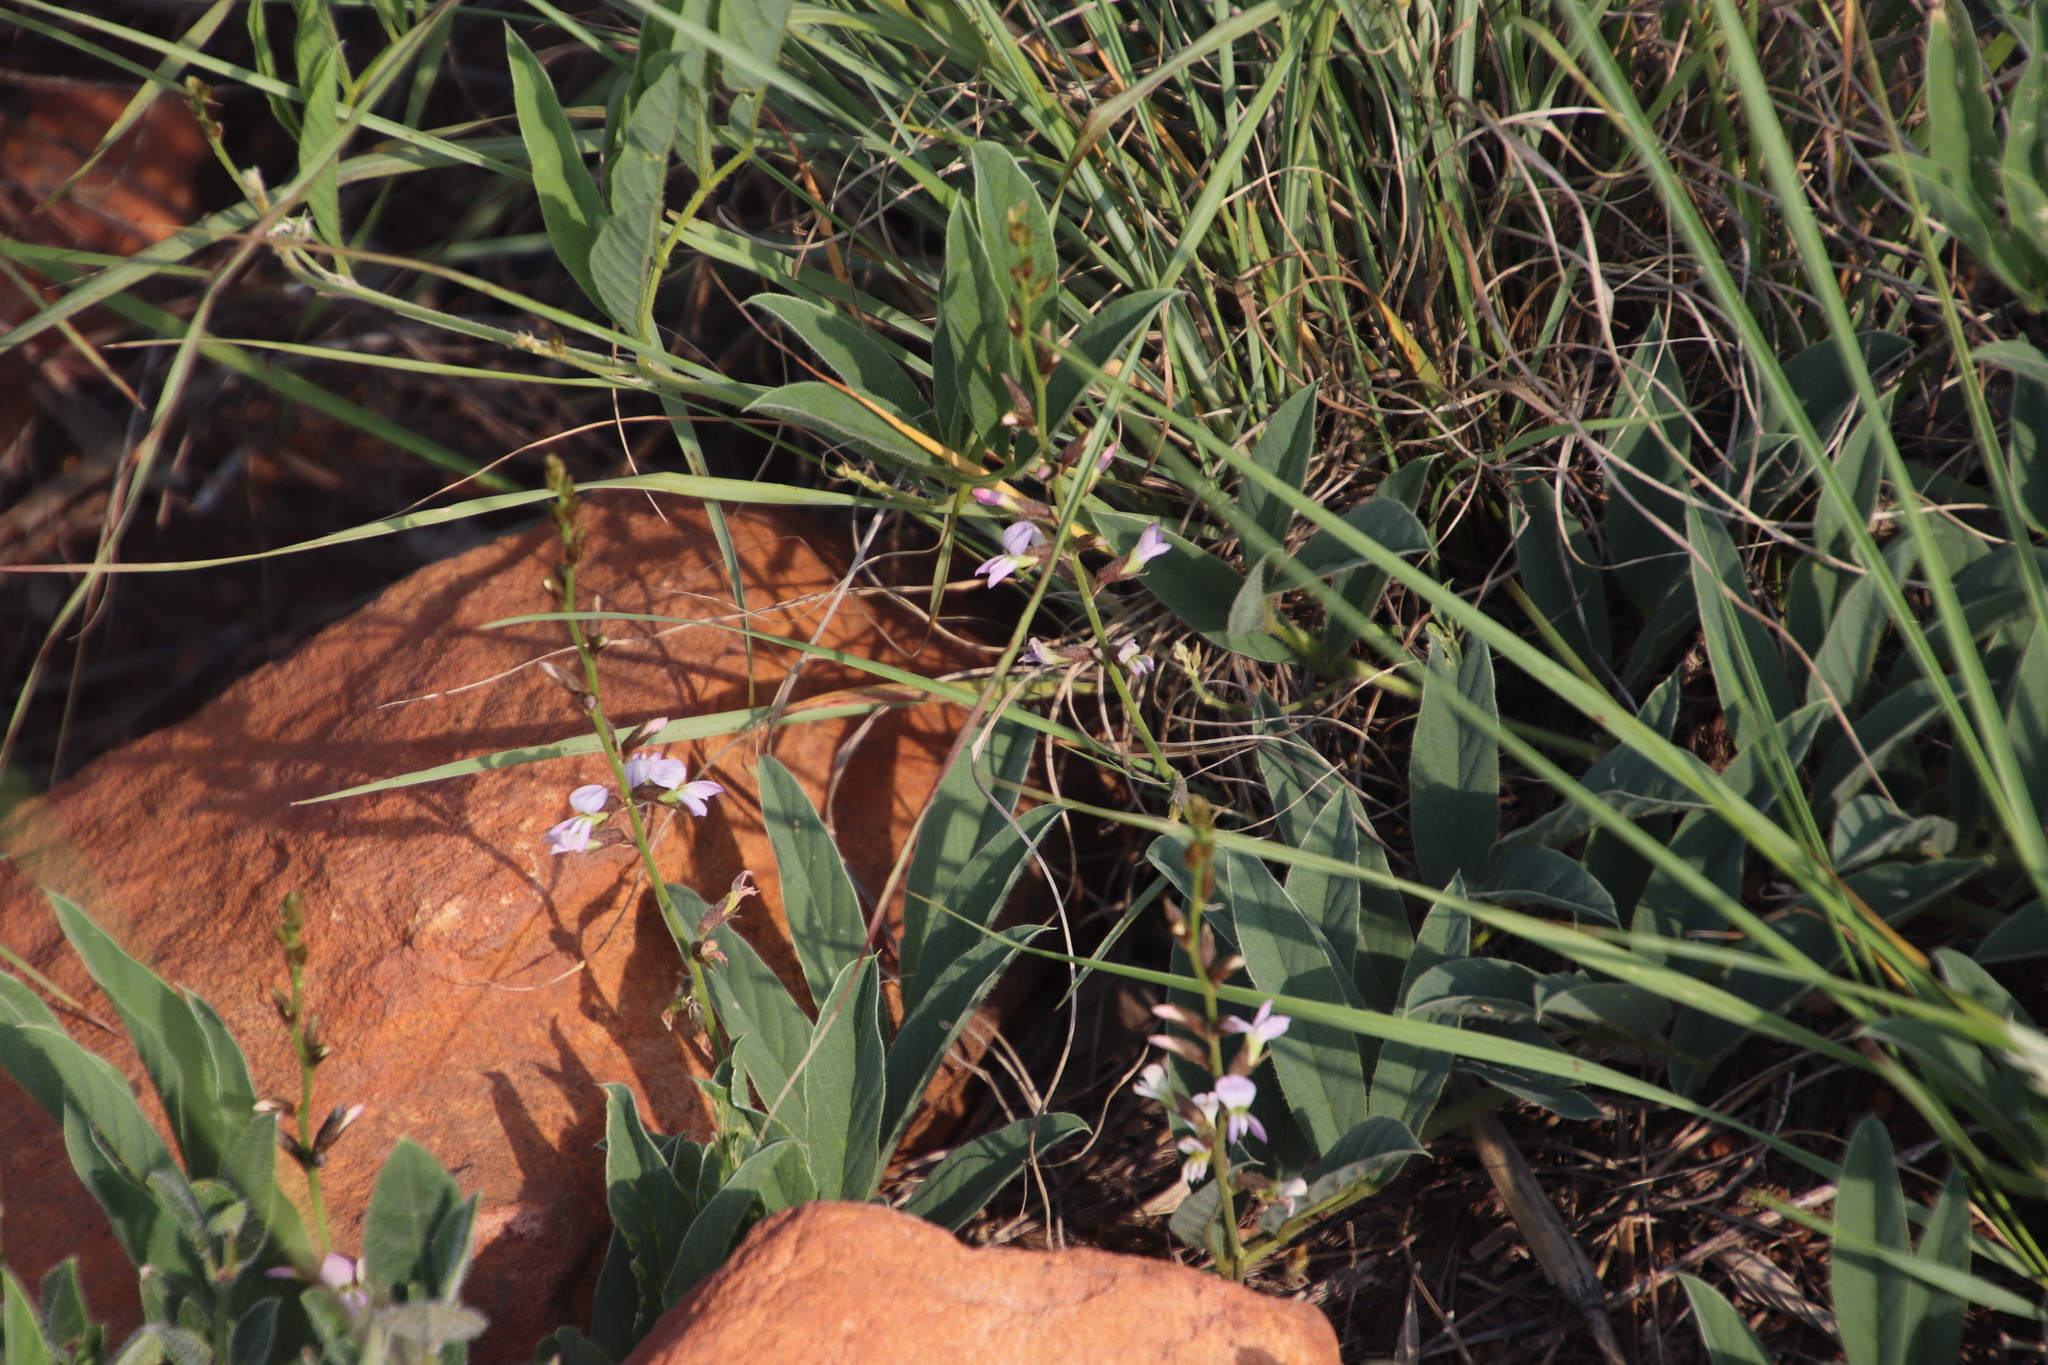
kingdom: Plantae
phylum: Tracheophyta
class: Magnoliopsida
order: Fabales
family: Fabaceae
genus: Ophrestia
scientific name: Ophrestia oblongifolia
